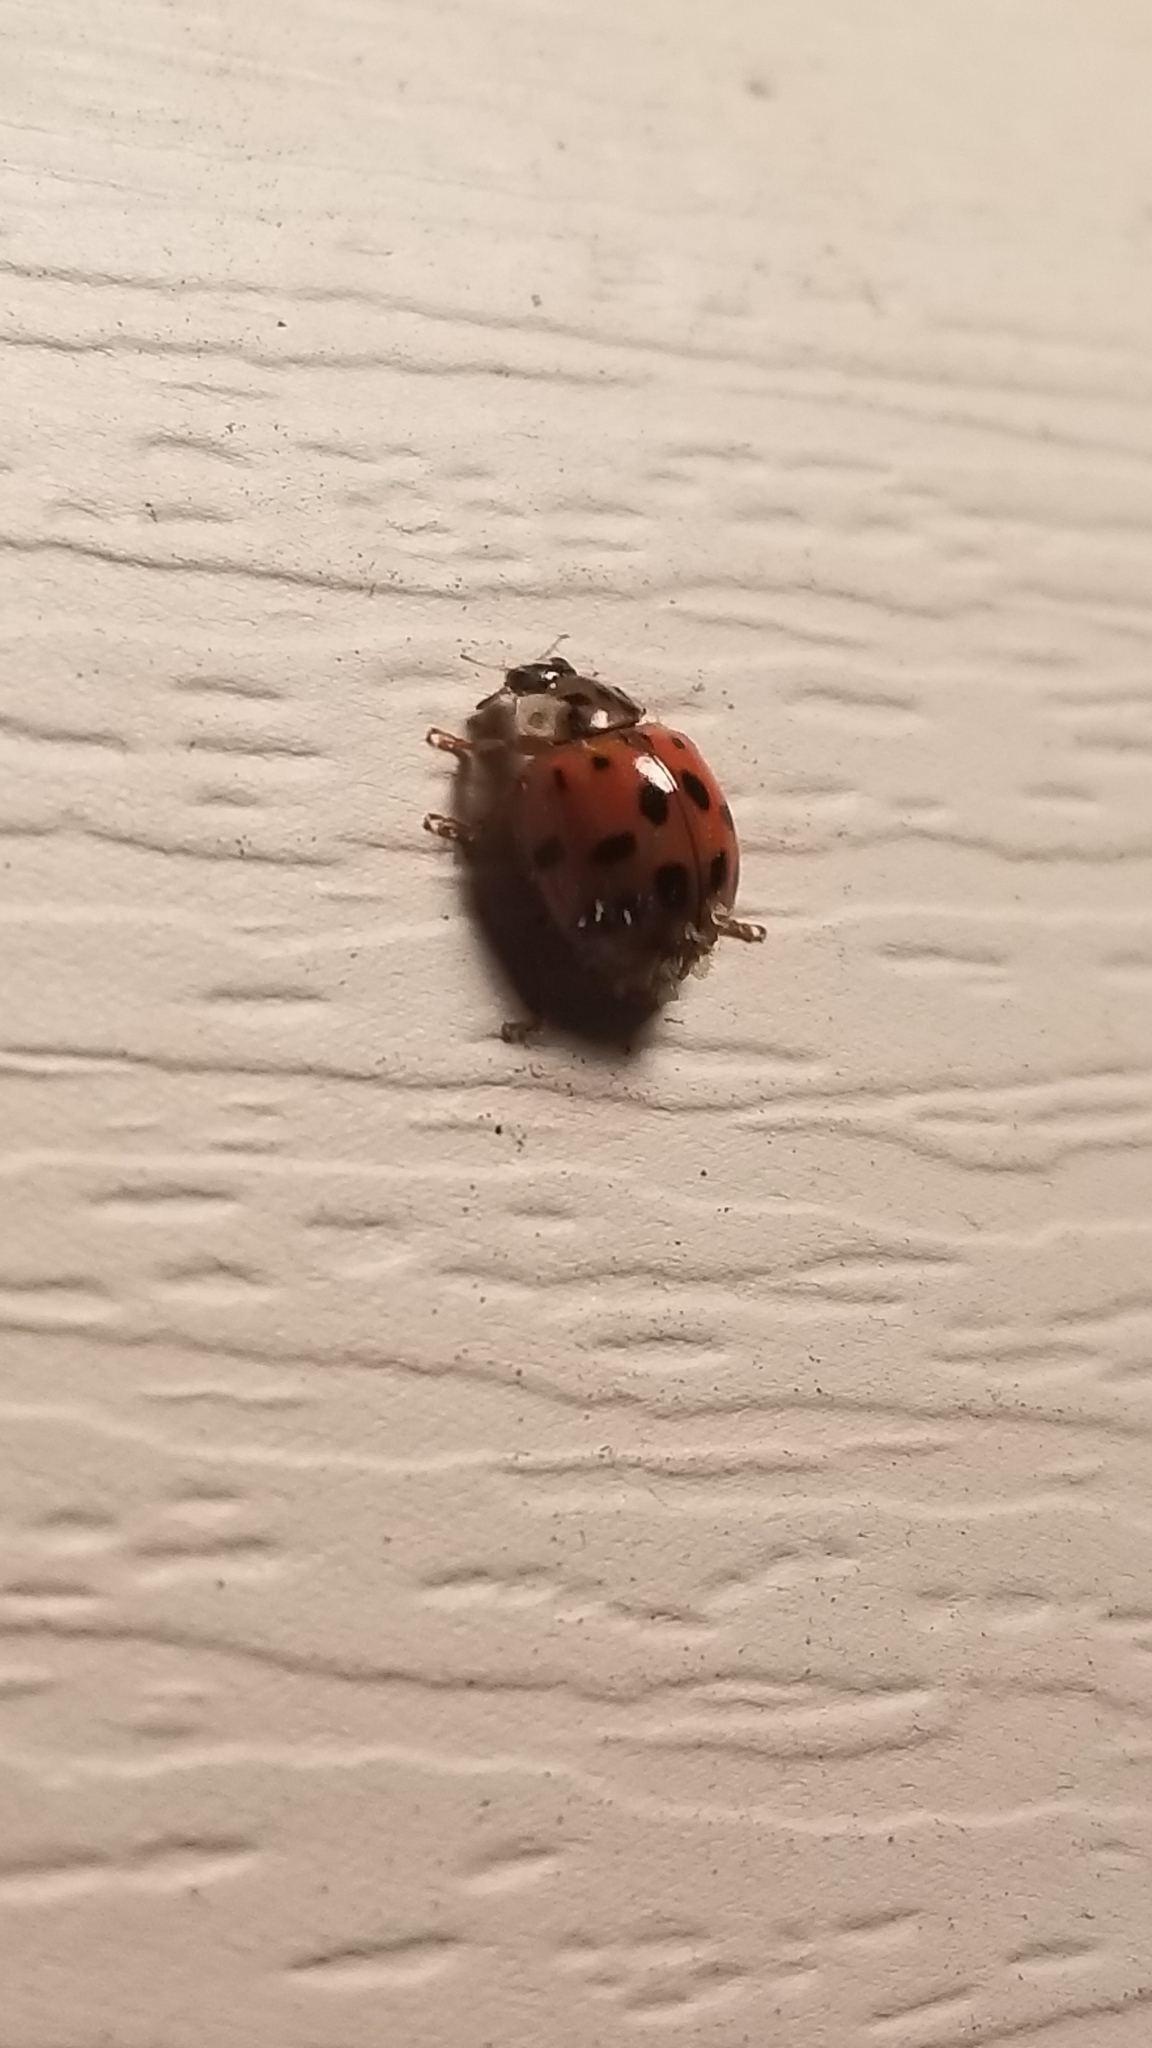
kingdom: Animalia
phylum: Arthropoda
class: Insecta
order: Coleoptera
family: Coccinellidae
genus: Harmonia
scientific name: Harmonia axyridis
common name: Harlequin ladybird
